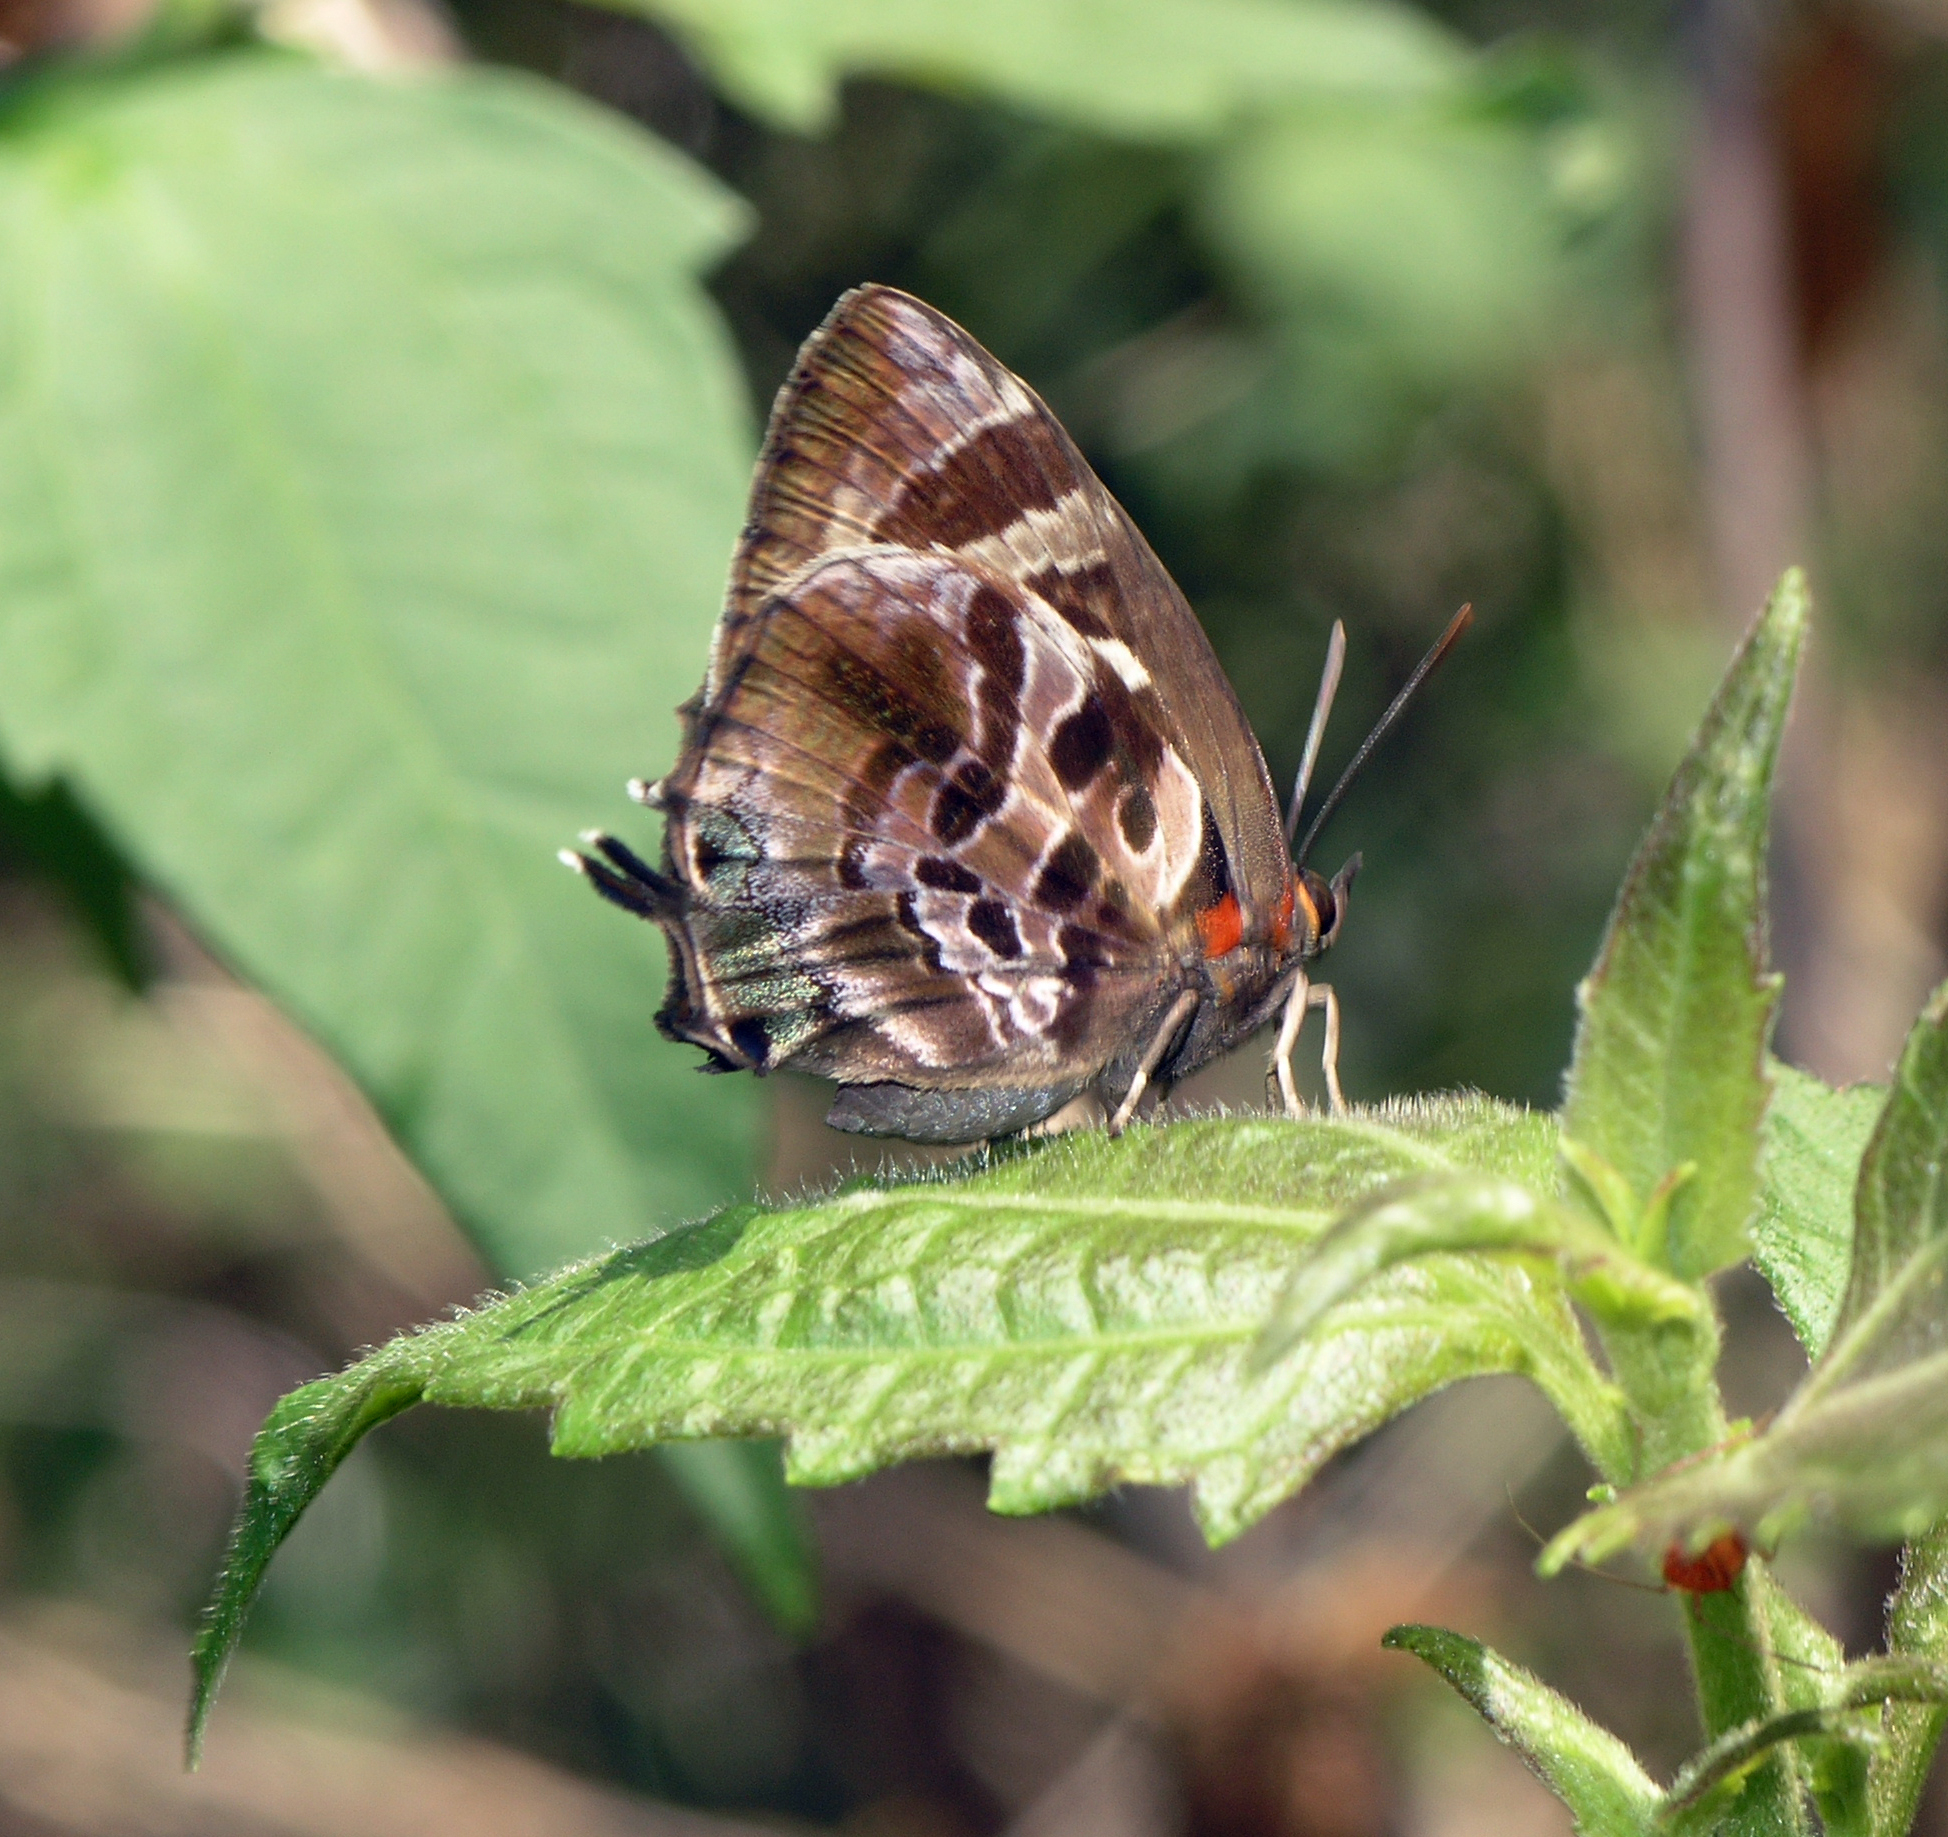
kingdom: Animalia
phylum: Arthropoda
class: Insecta
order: Lepidoptera
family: Lycaenidae
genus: Flos
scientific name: Flos
